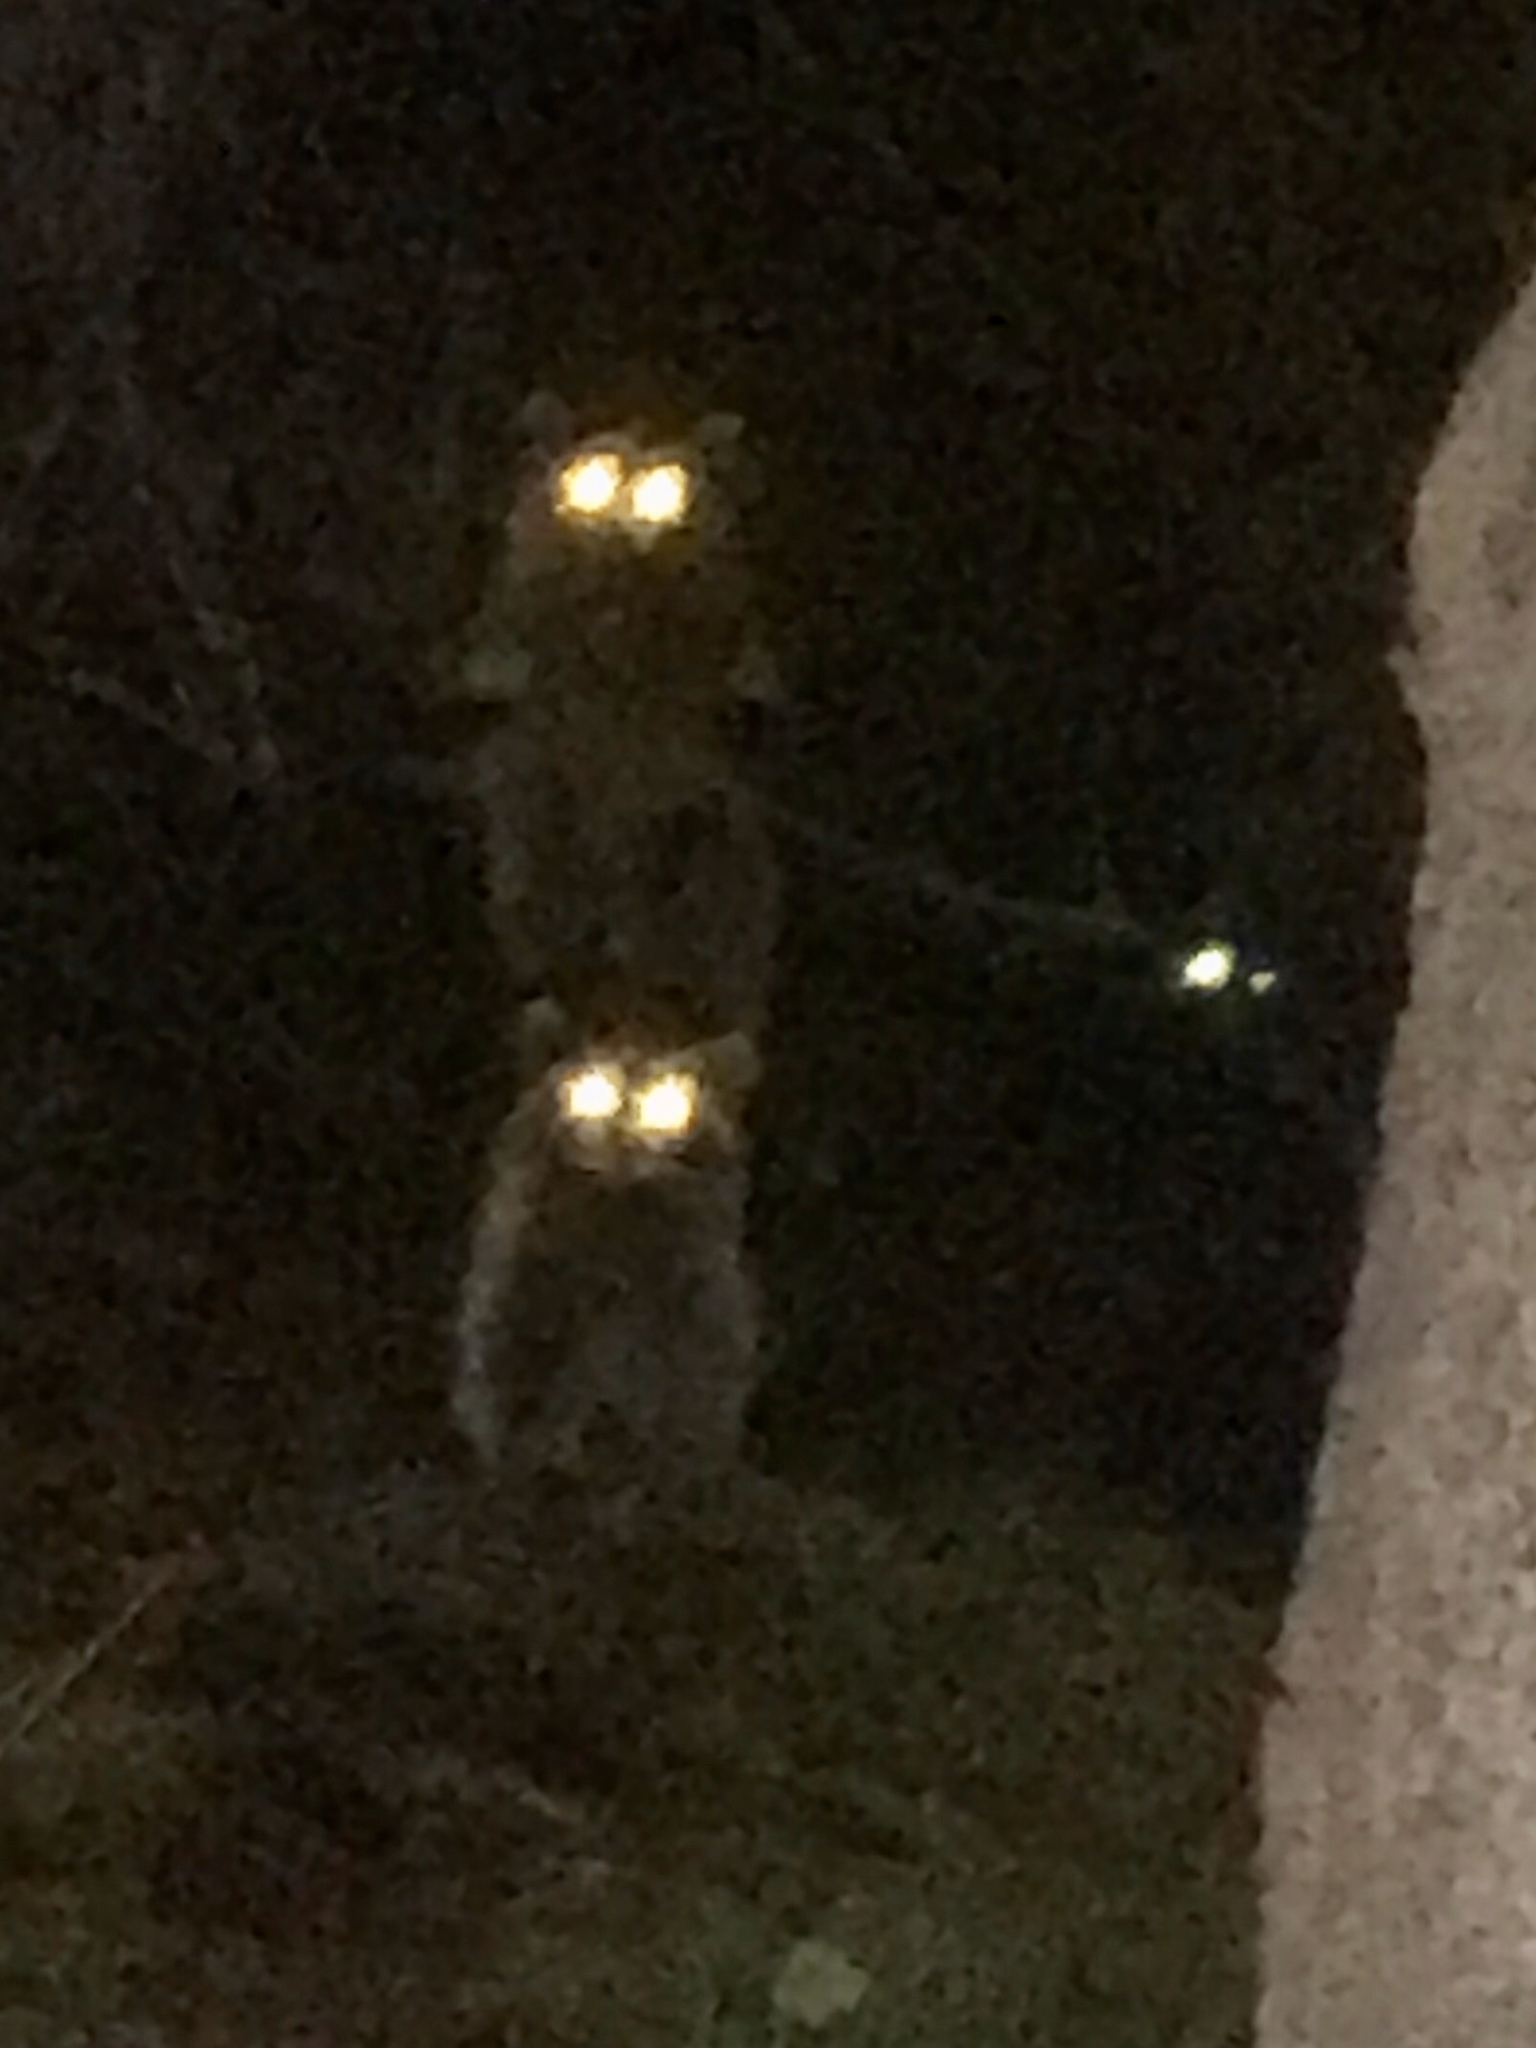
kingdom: Animalia
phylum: Chordata
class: Mammalia
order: Carnivora
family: Procyonidae
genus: Procyon
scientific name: Procyon lotor
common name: Raccoon
